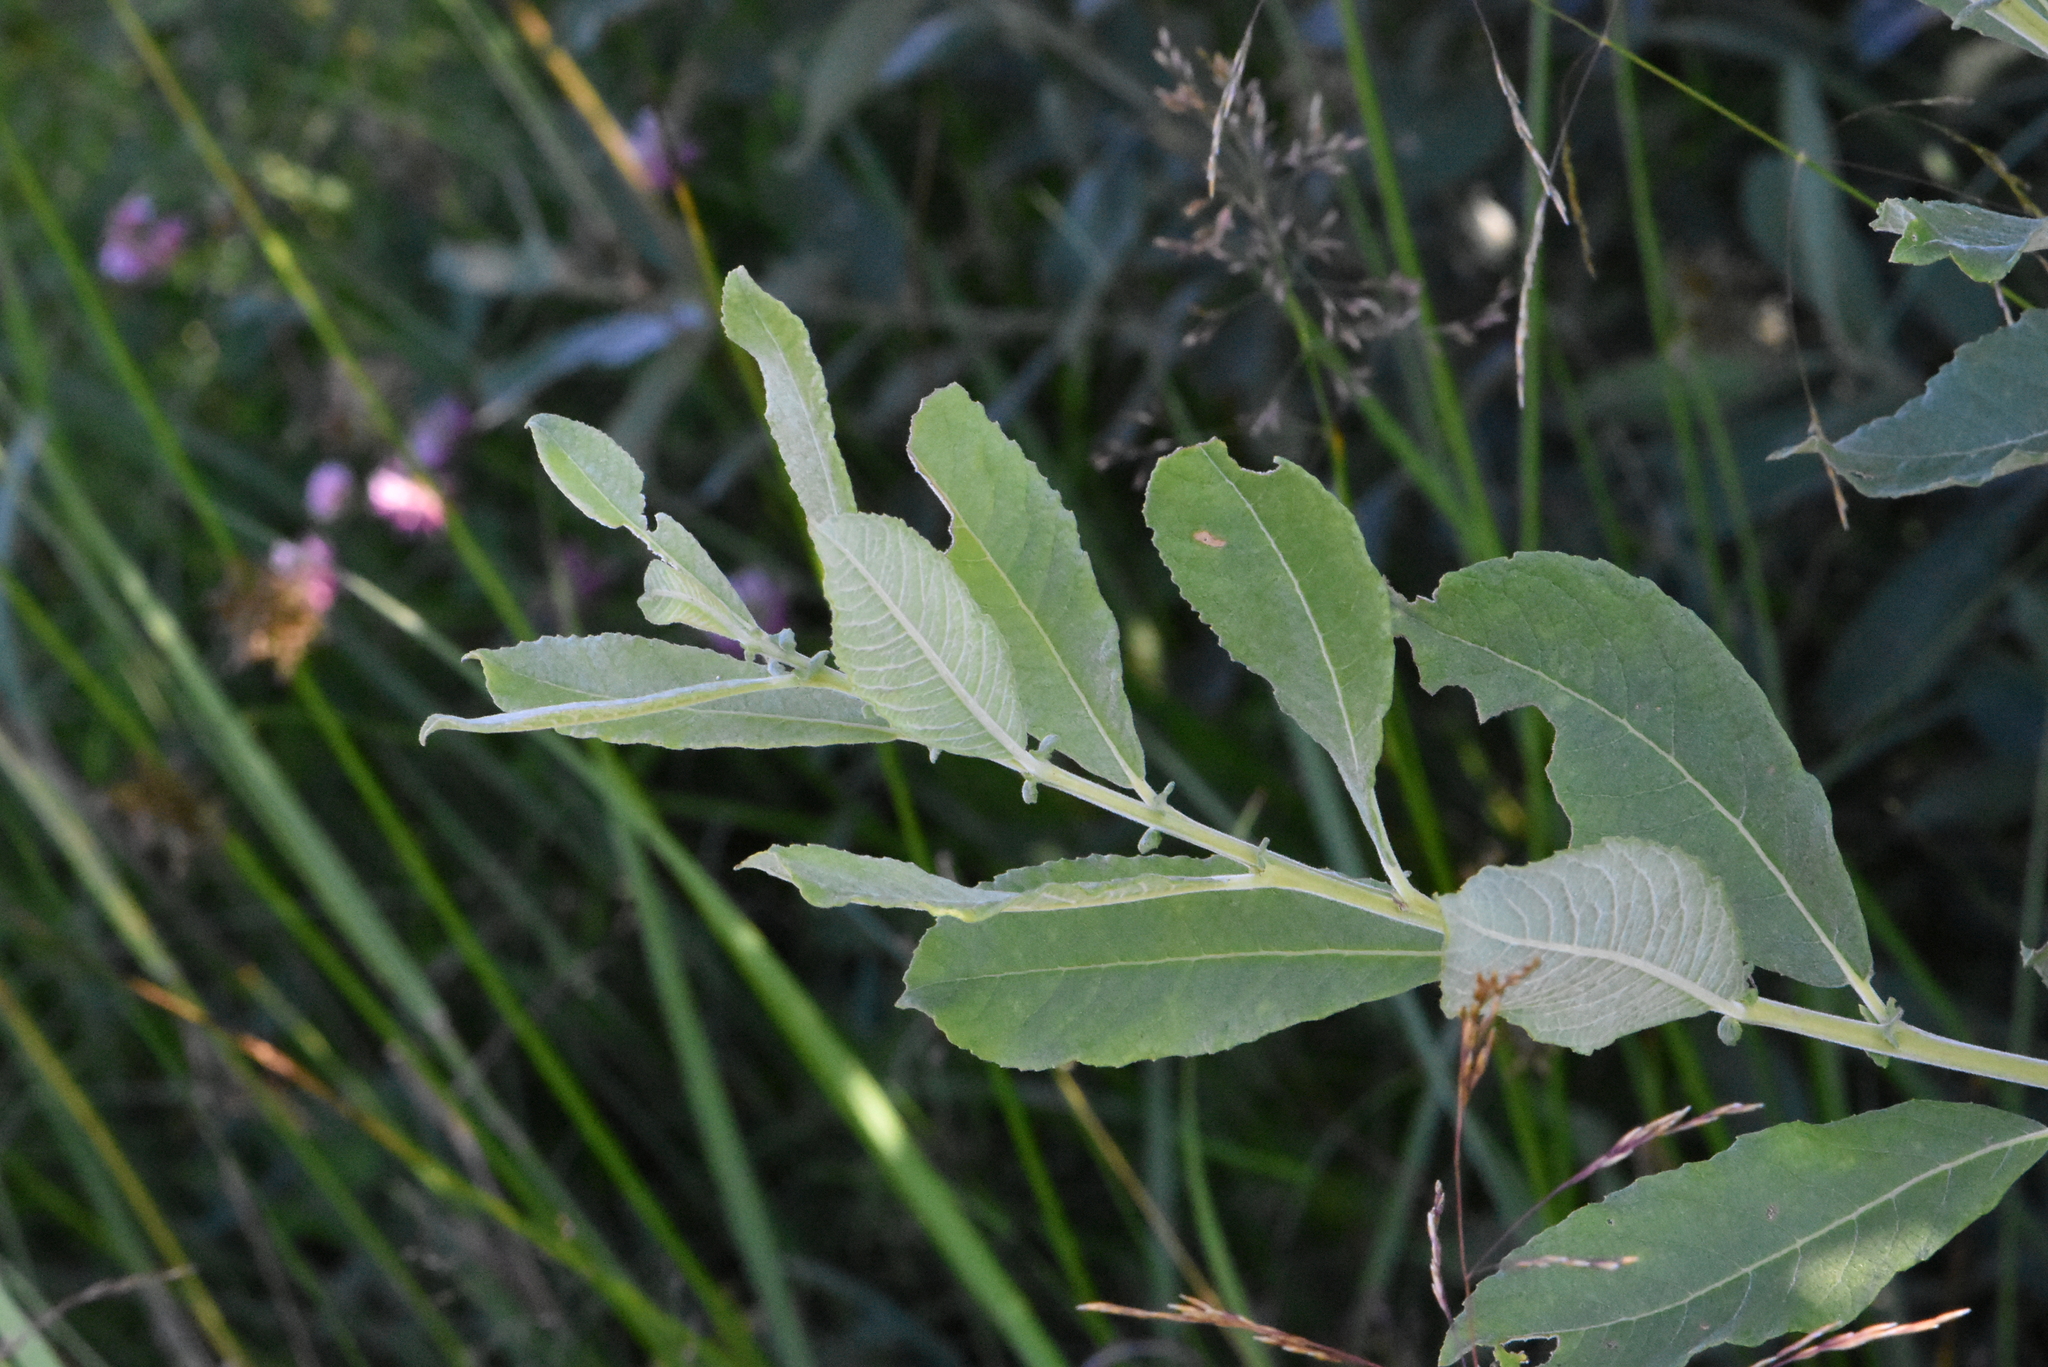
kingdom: Plantae
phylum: Tracheophyta
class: Magnoliopsida
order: Malpighiales
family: Salicaceae
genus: Salix
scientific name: Salix cinerea
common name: Common sallow
